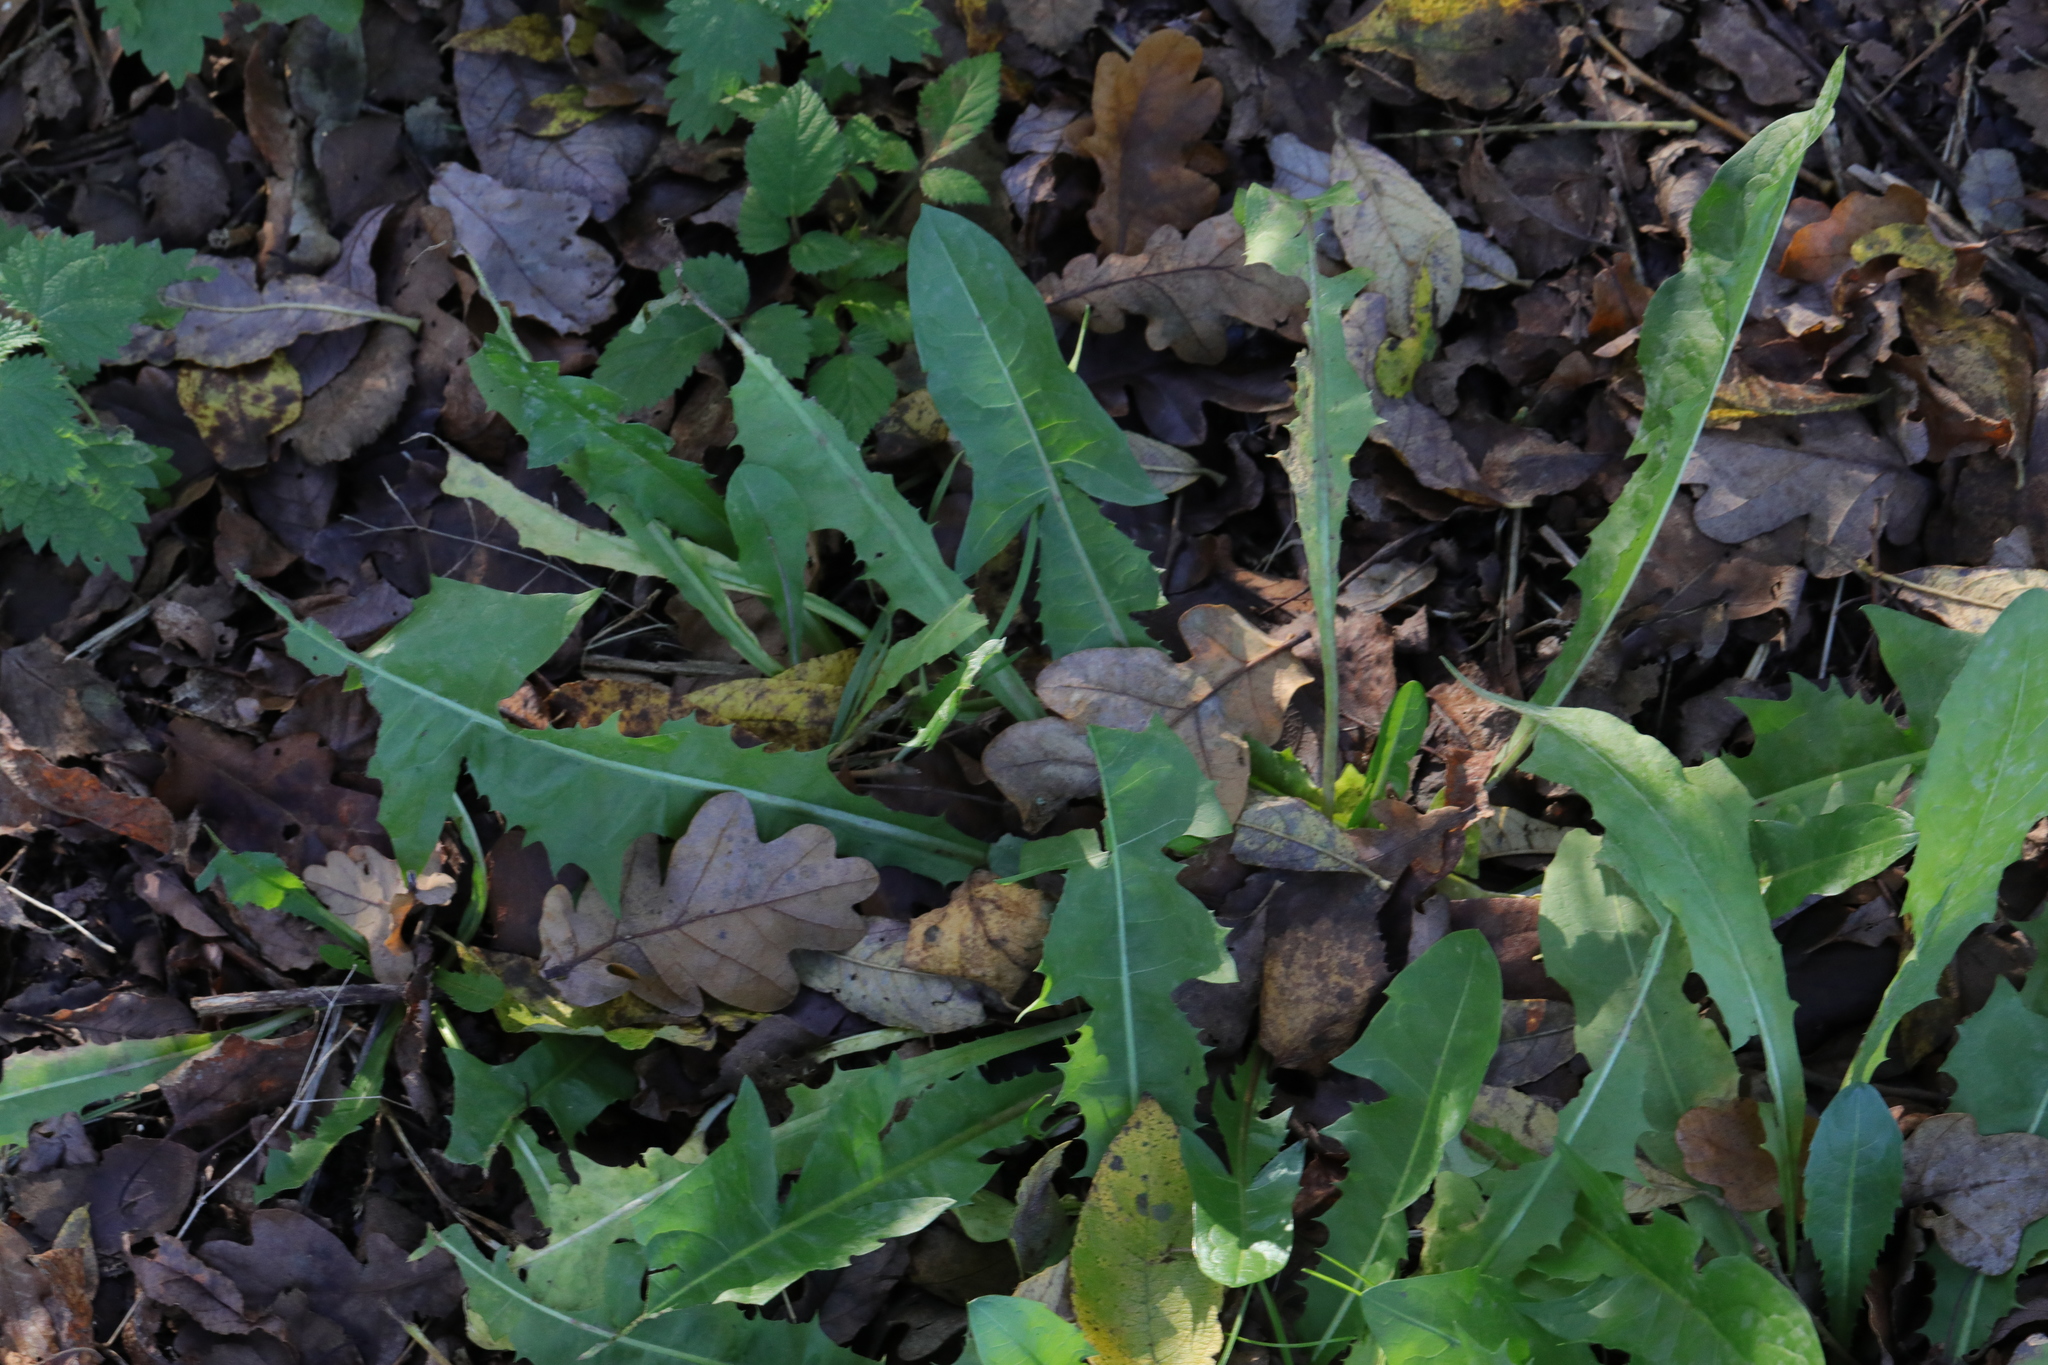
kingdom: Plantae
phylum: Tracheophyta
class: Magnoliopsida
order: Asterales
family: Asteraceae
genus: Taraxacum
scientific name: Taraxacum officinale
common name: Common dandelion
